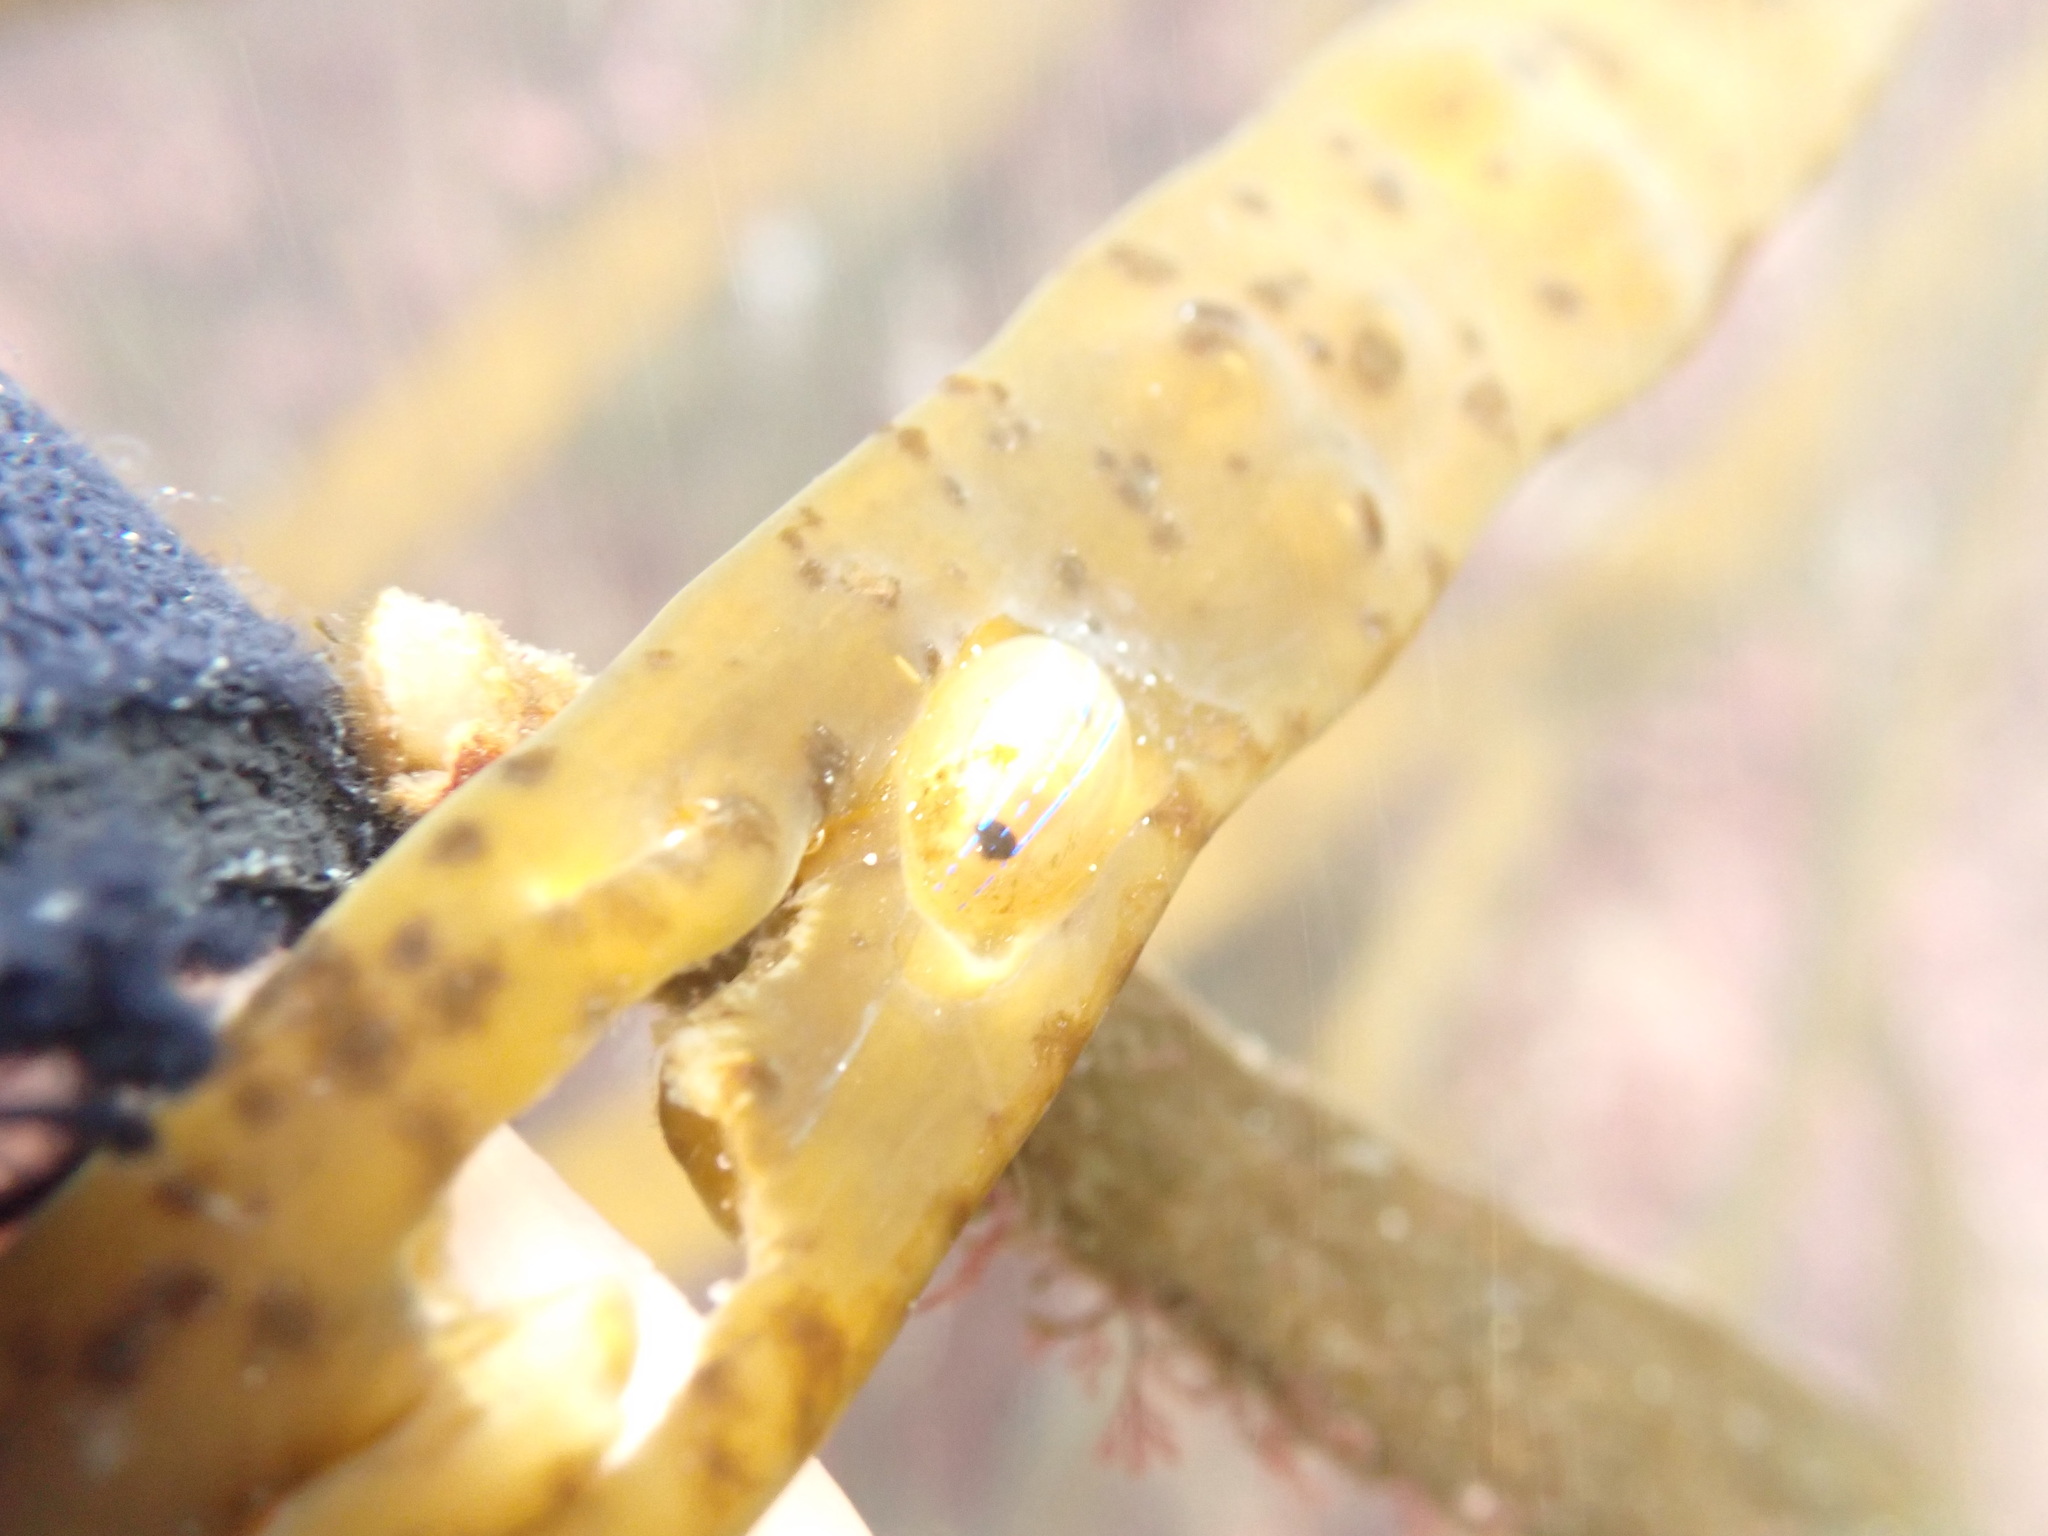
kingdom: Animalia
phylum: Mollusca
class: Gastropoda
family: Patellidae
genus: Patella
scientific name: Patella pellucida
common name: Blue-rayed limpet
